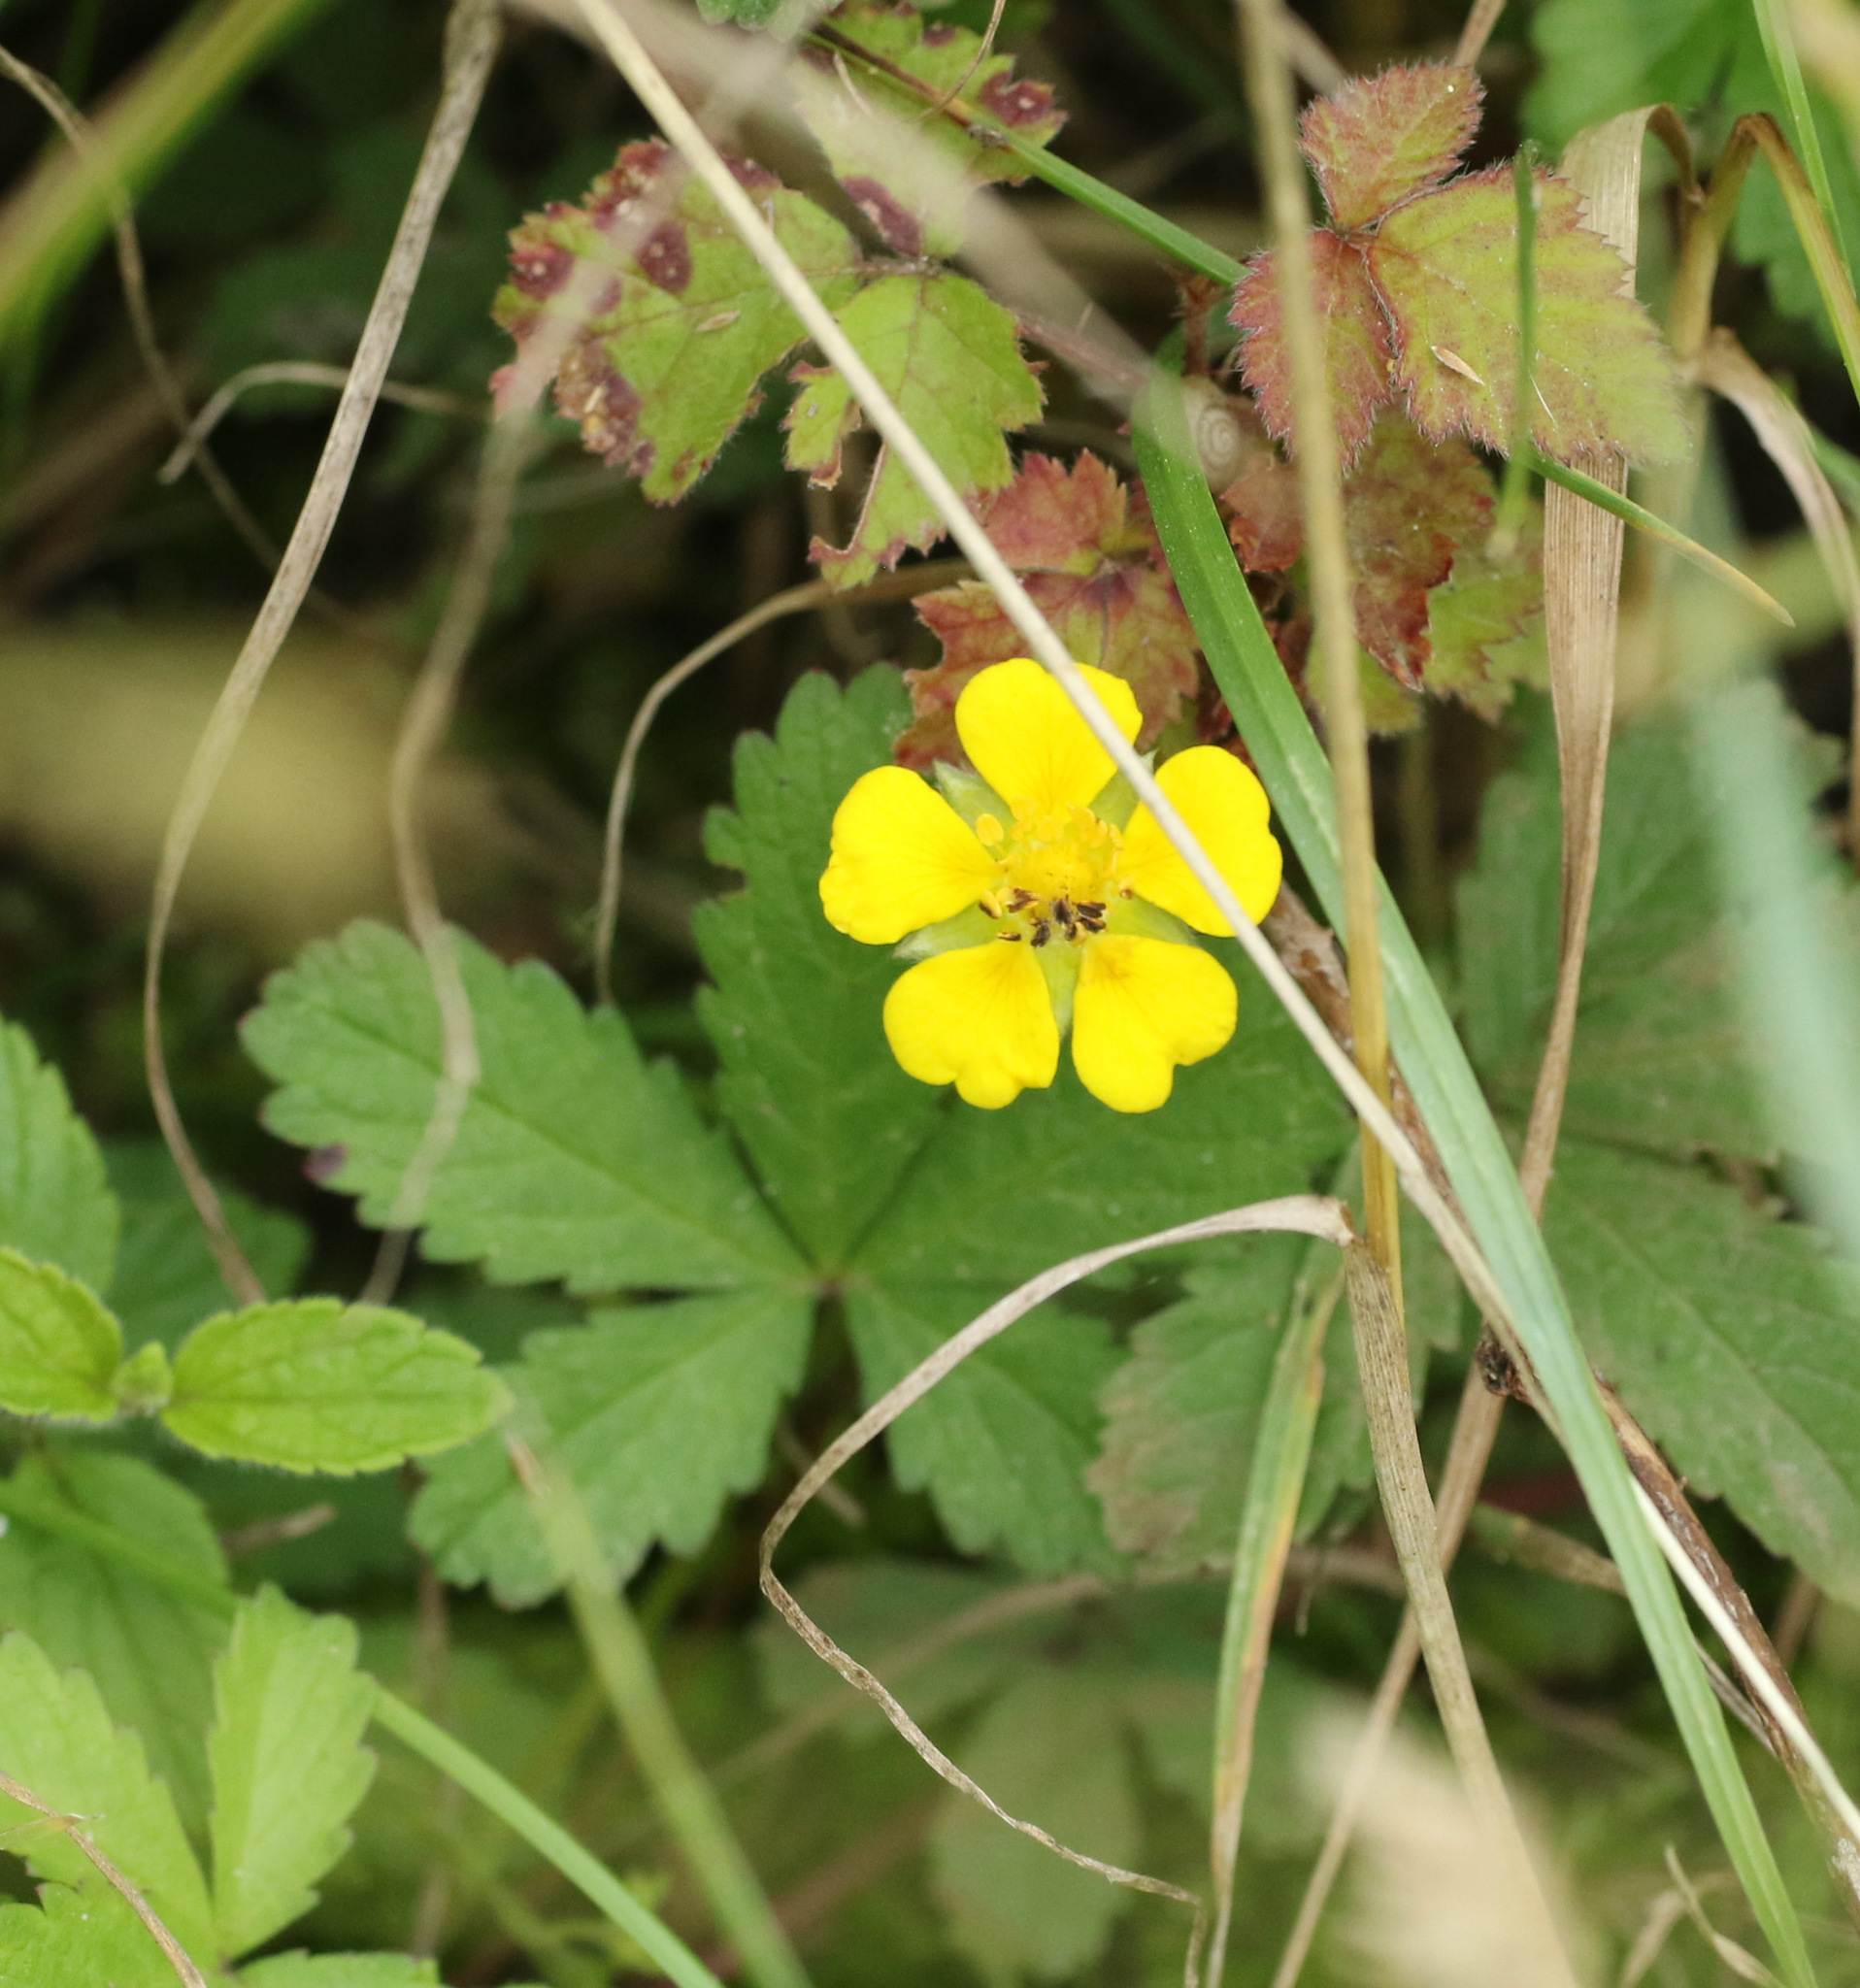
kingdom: Plantae
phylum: Tracheophyta
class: Magnoliopsida
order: Rosales
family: Rosaceae
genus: Potentilla
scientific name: Potentilla reptans
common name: Creeping cinquefoil
